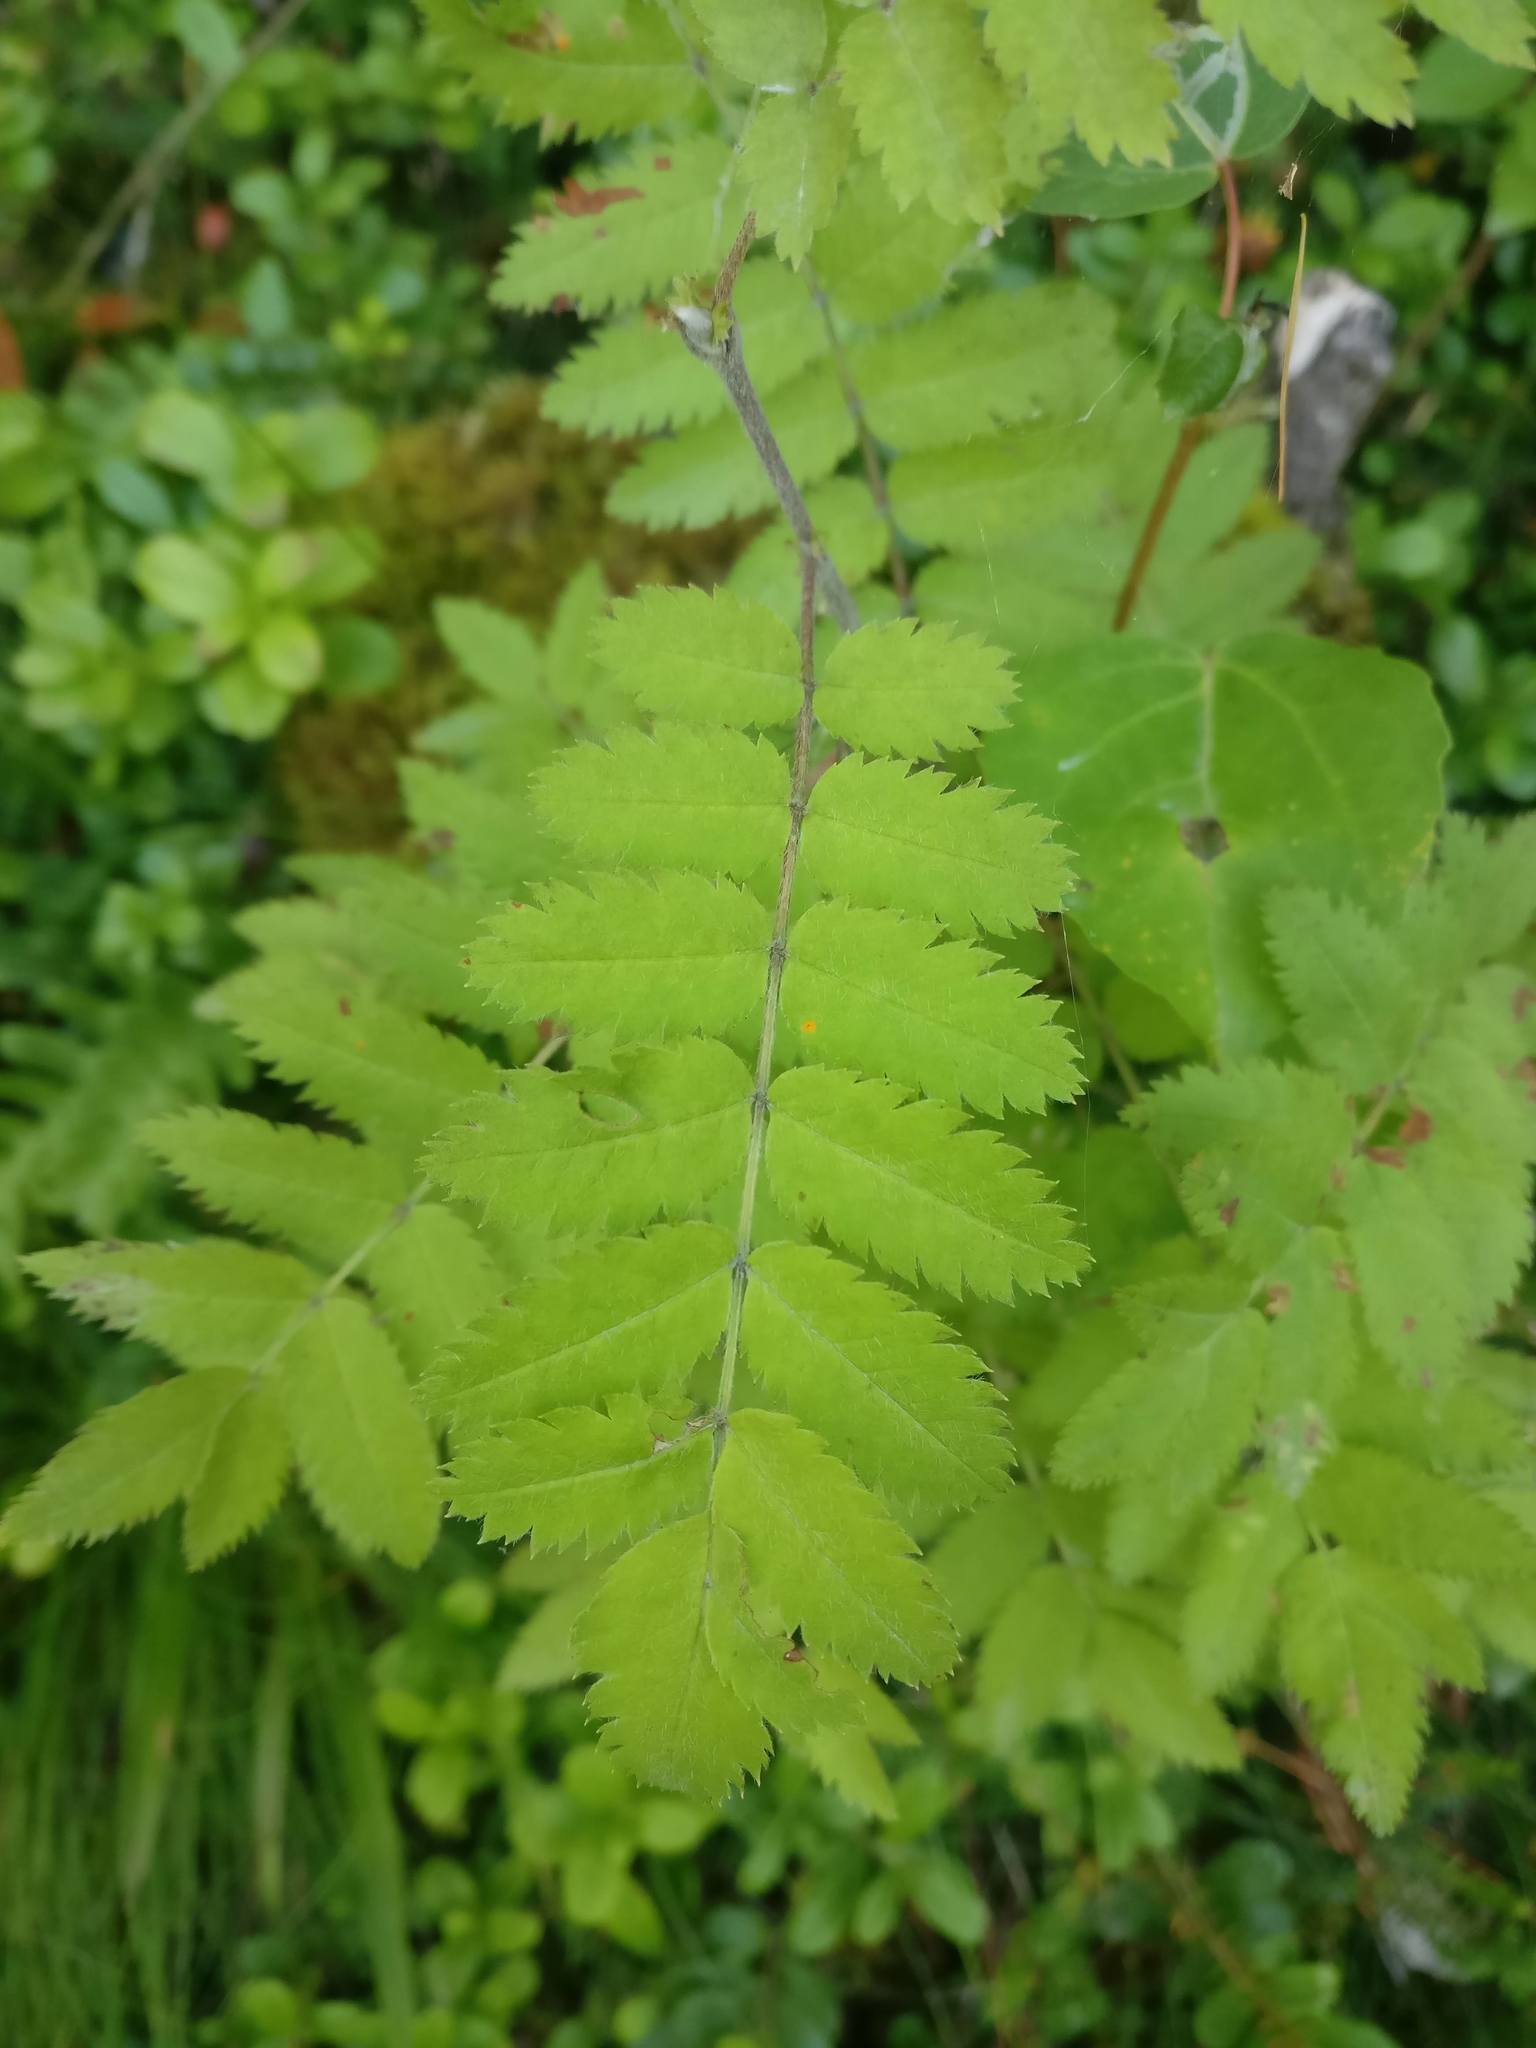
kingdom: Plantae
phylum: Tracheophyta
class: Magnoliopsida
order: Rosales
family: Rosaceae
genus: Sorbus
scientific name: Sorbus aucuparia
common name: Rowan
